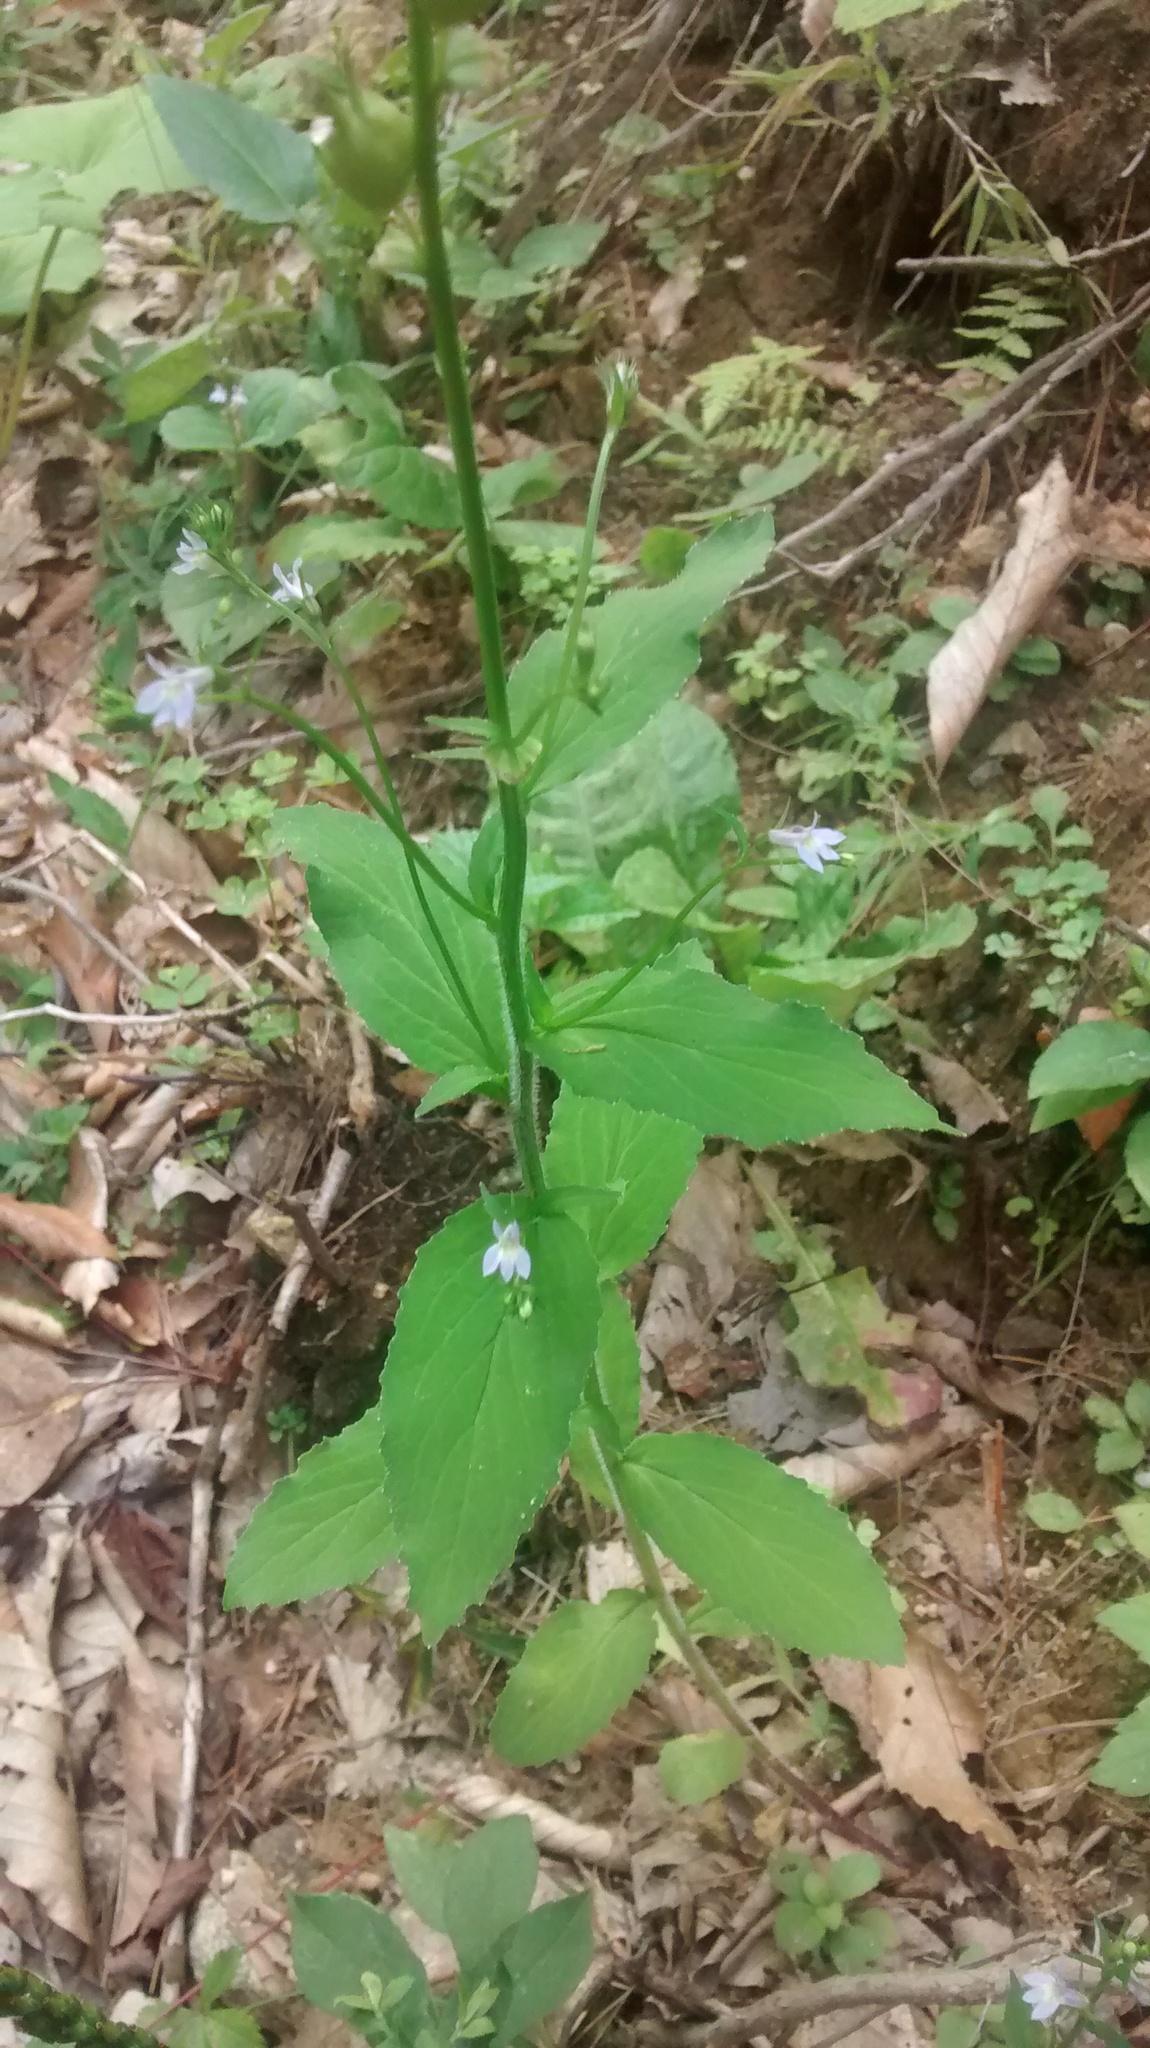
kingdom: Plantae
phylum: Tracheophyta
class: Magnoliopsida
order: Asterales
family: Campanulaceae
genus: Lobelia
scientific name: Lobelia inflata
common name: Indian tobacco
